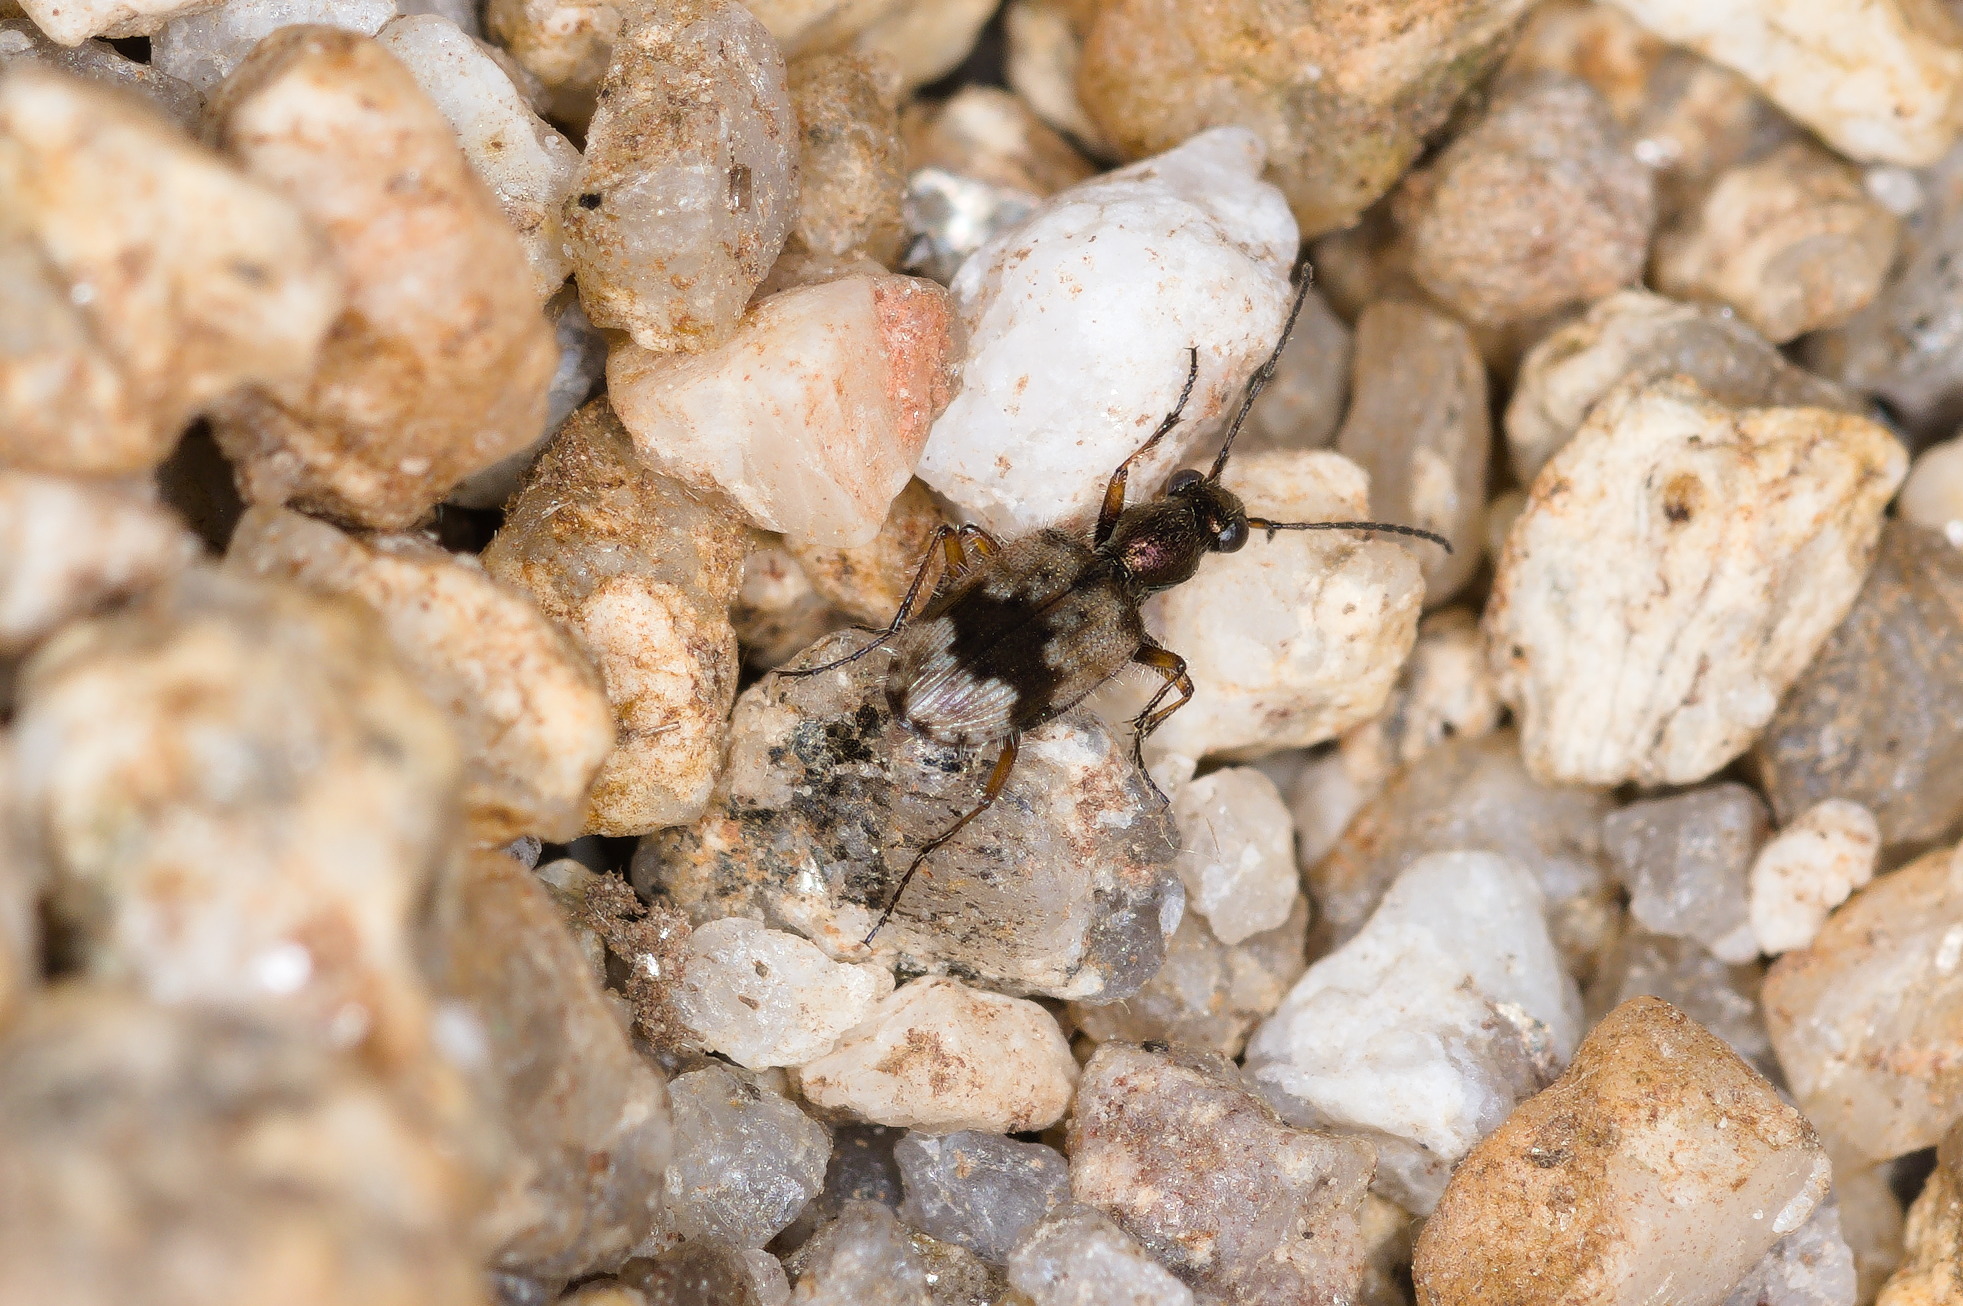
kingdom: Animalia
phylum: Arthropoda
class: Insecta
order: Coleoptera
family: Carabidae
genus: Lachnophorus
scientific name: Lachnophorus elegantulus
